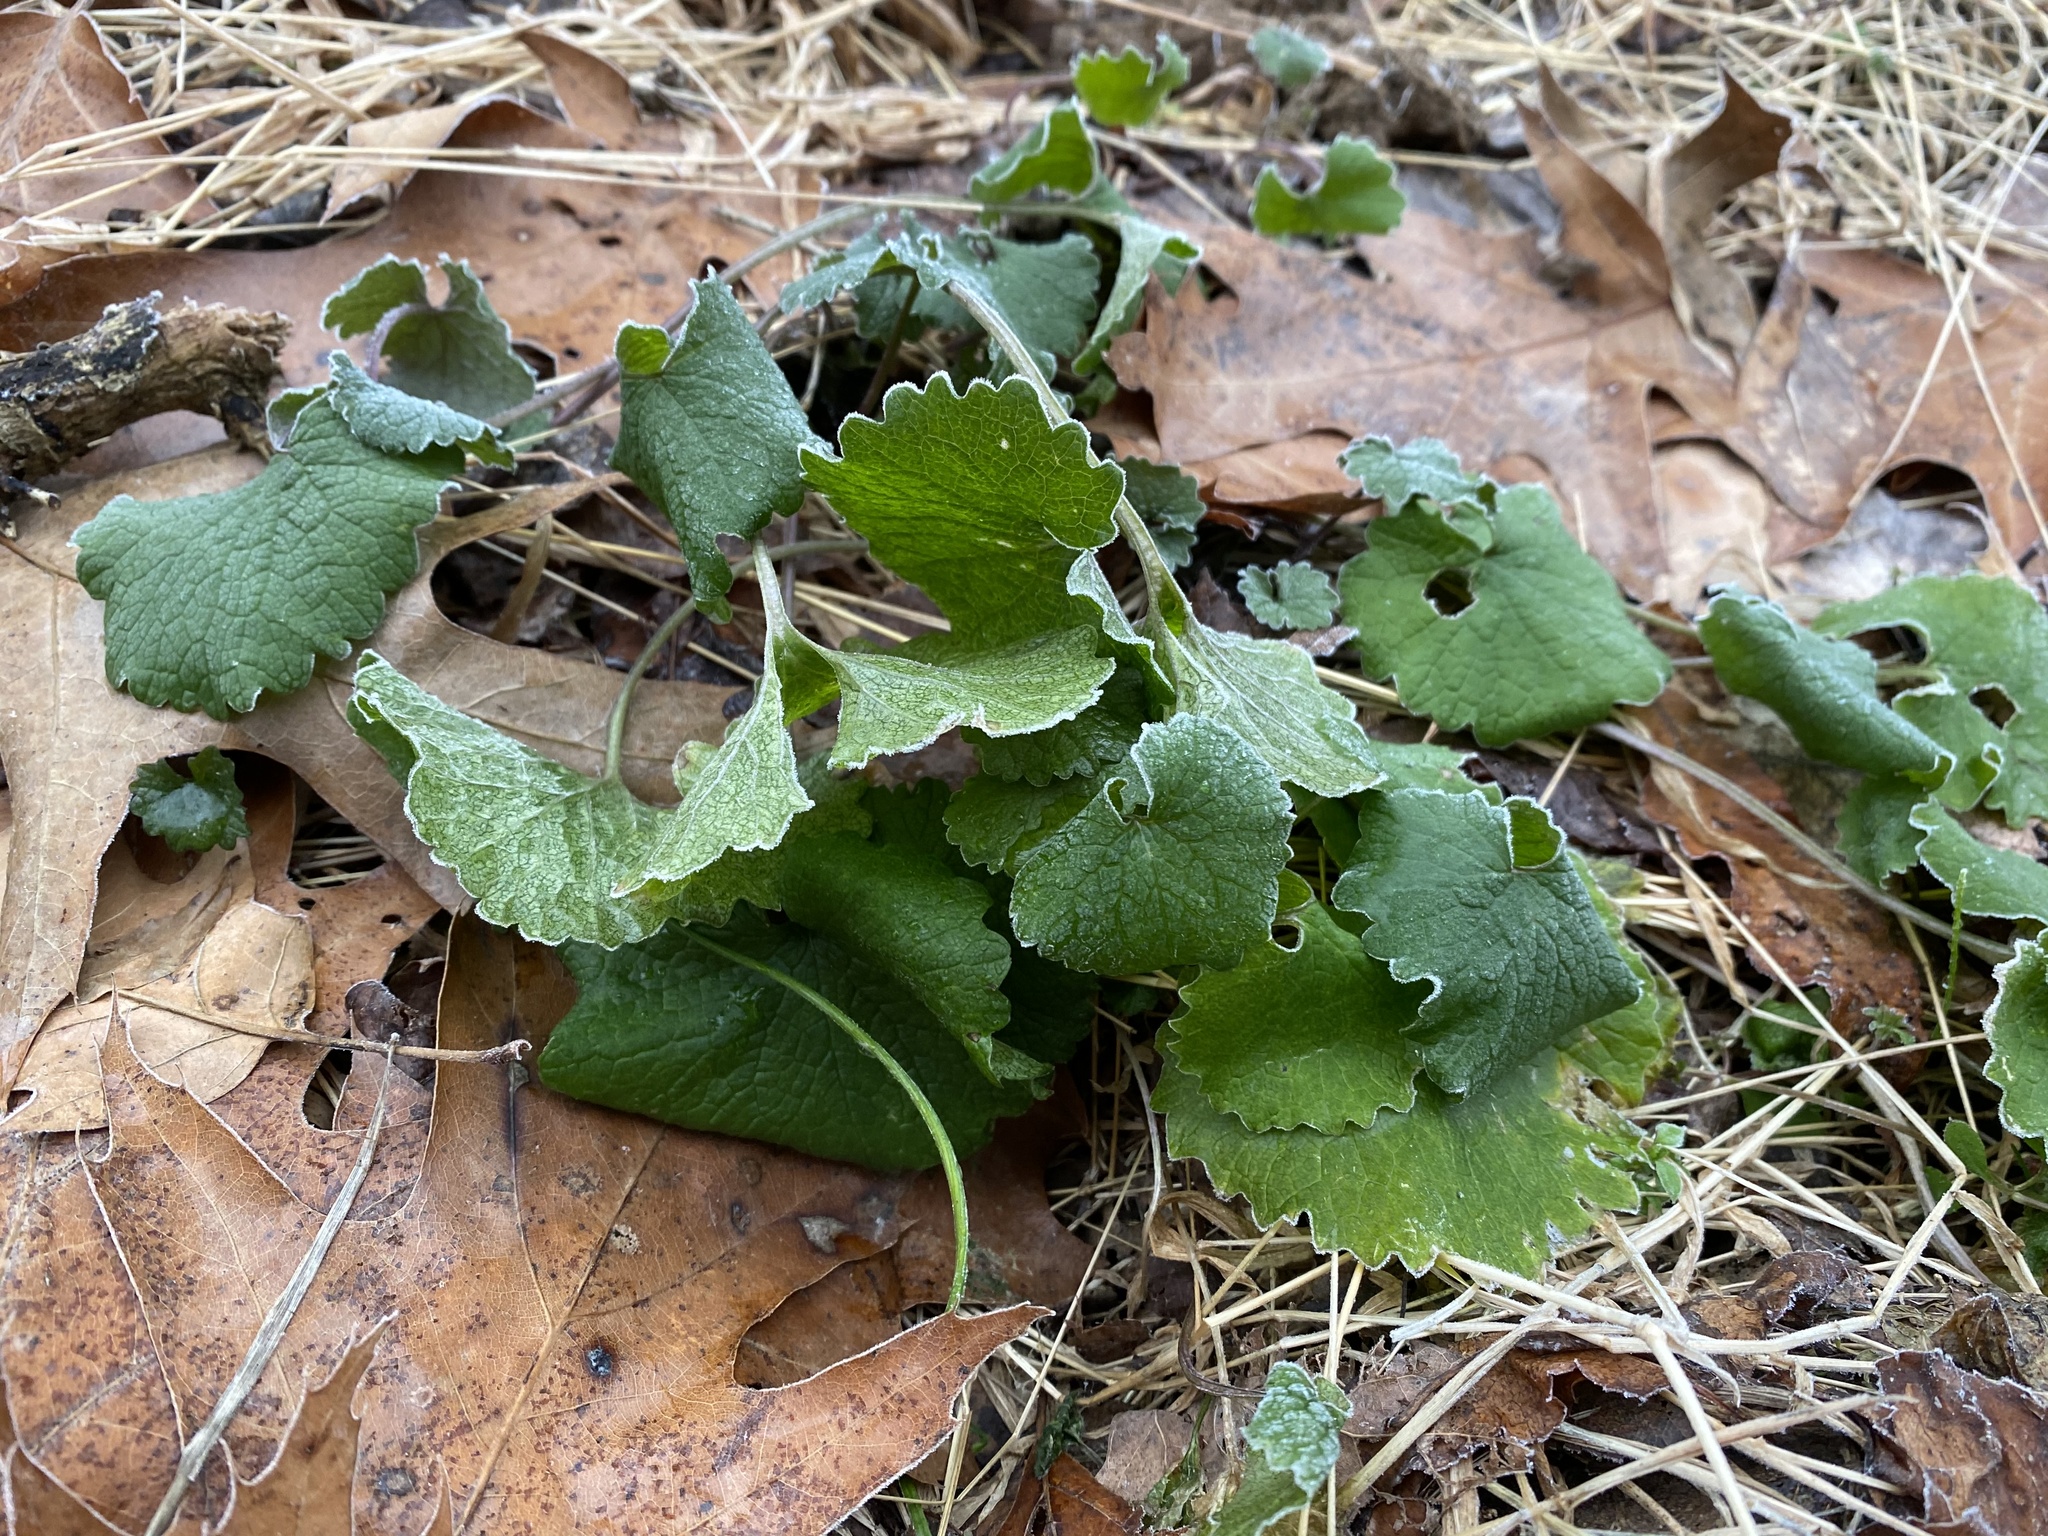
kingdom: Plantae
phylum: Tracheophyta
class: Magnoliopsida
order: Brassicales
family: Brassicaceae
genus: Alliaria
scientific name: Alliaria petiolata
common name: Garlic mustard
